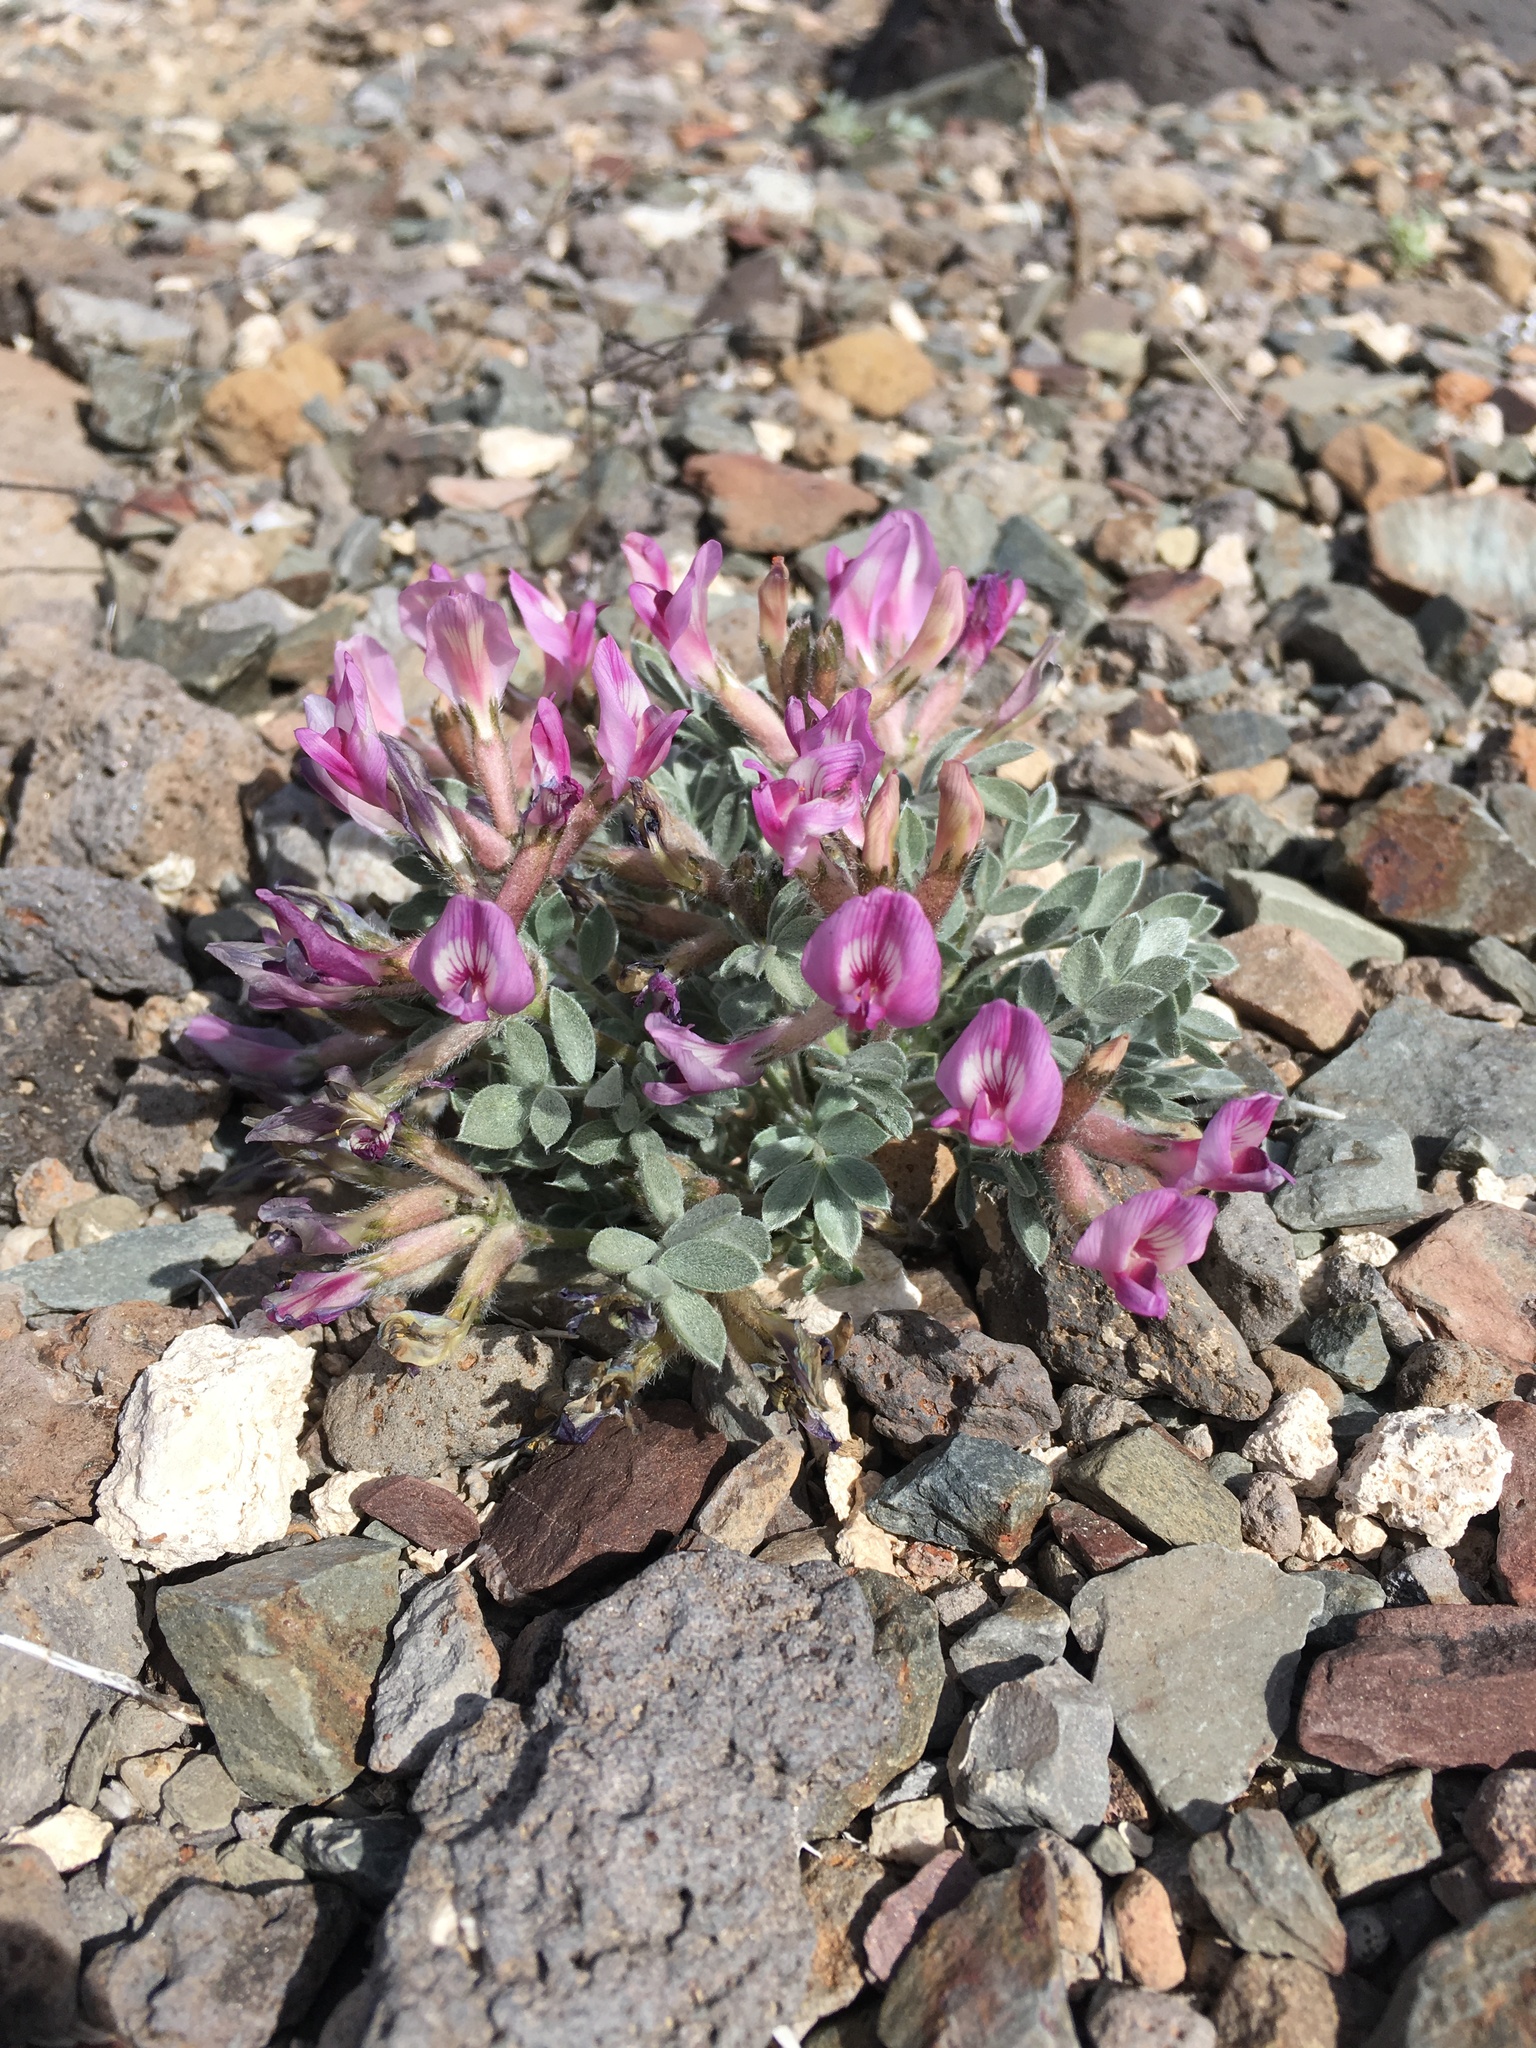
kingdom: Plantae
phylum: Tracheophyta
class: Magnoliopsida
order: Fabales
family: Fabaceae
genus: Astragalus
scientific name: Astragalus newberryi
